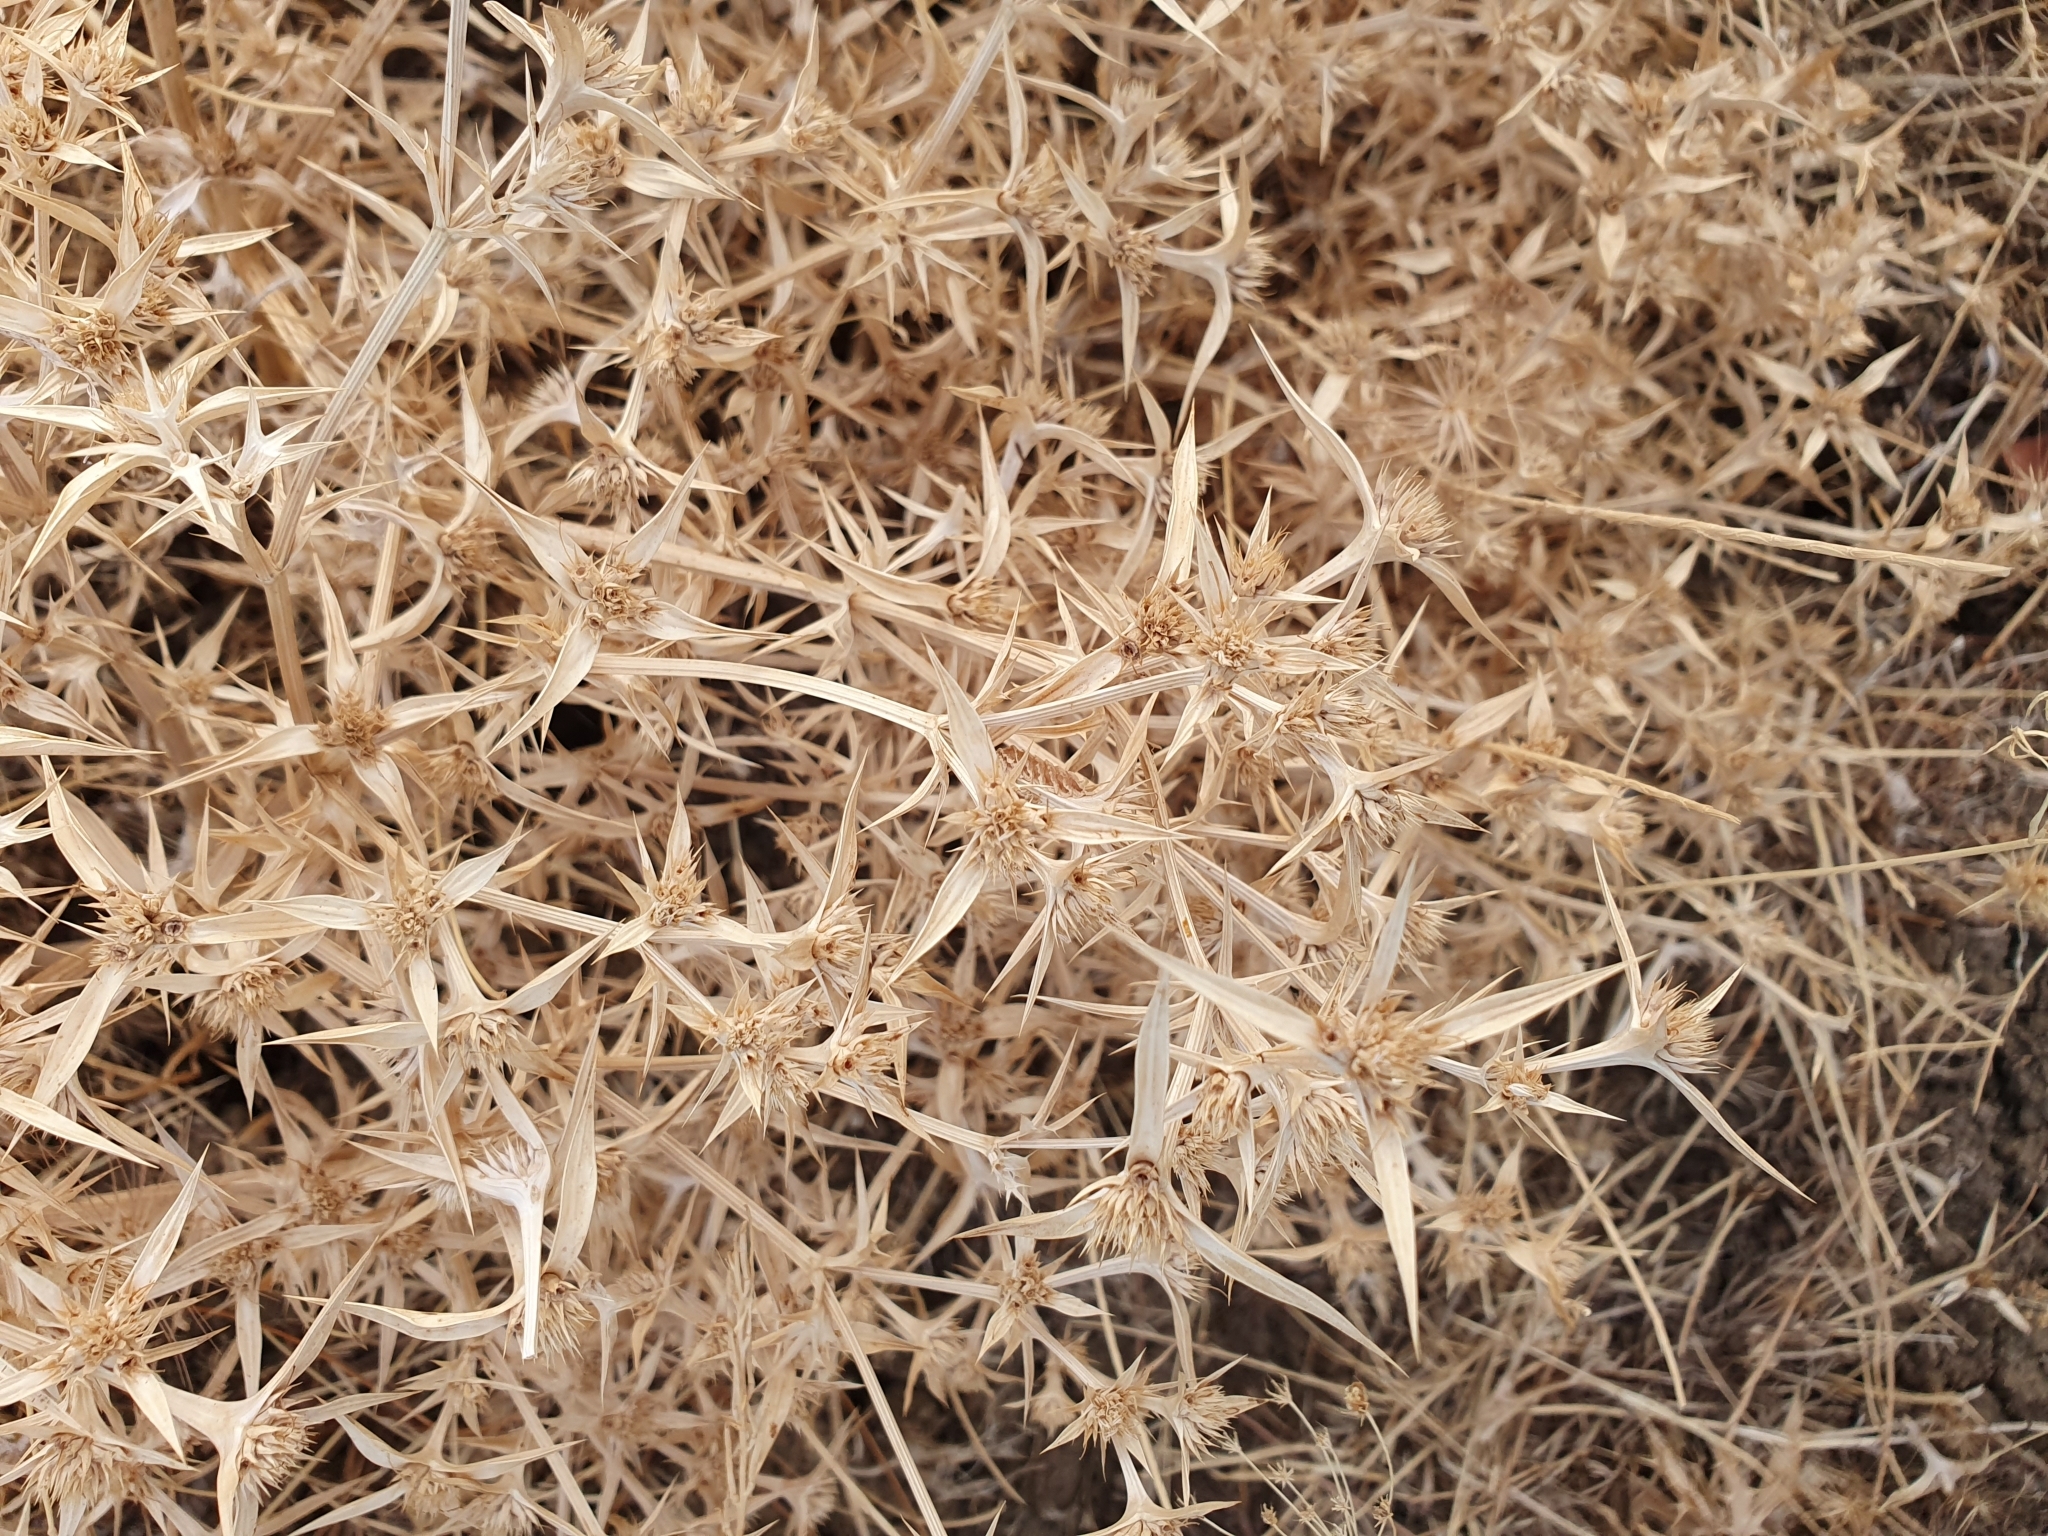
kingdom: Plantae
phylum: Tracheophyta
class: Magnoliopsida
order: Apiales
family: Apiaceae
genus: Eryngium
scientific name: Eryngium triquetrum
